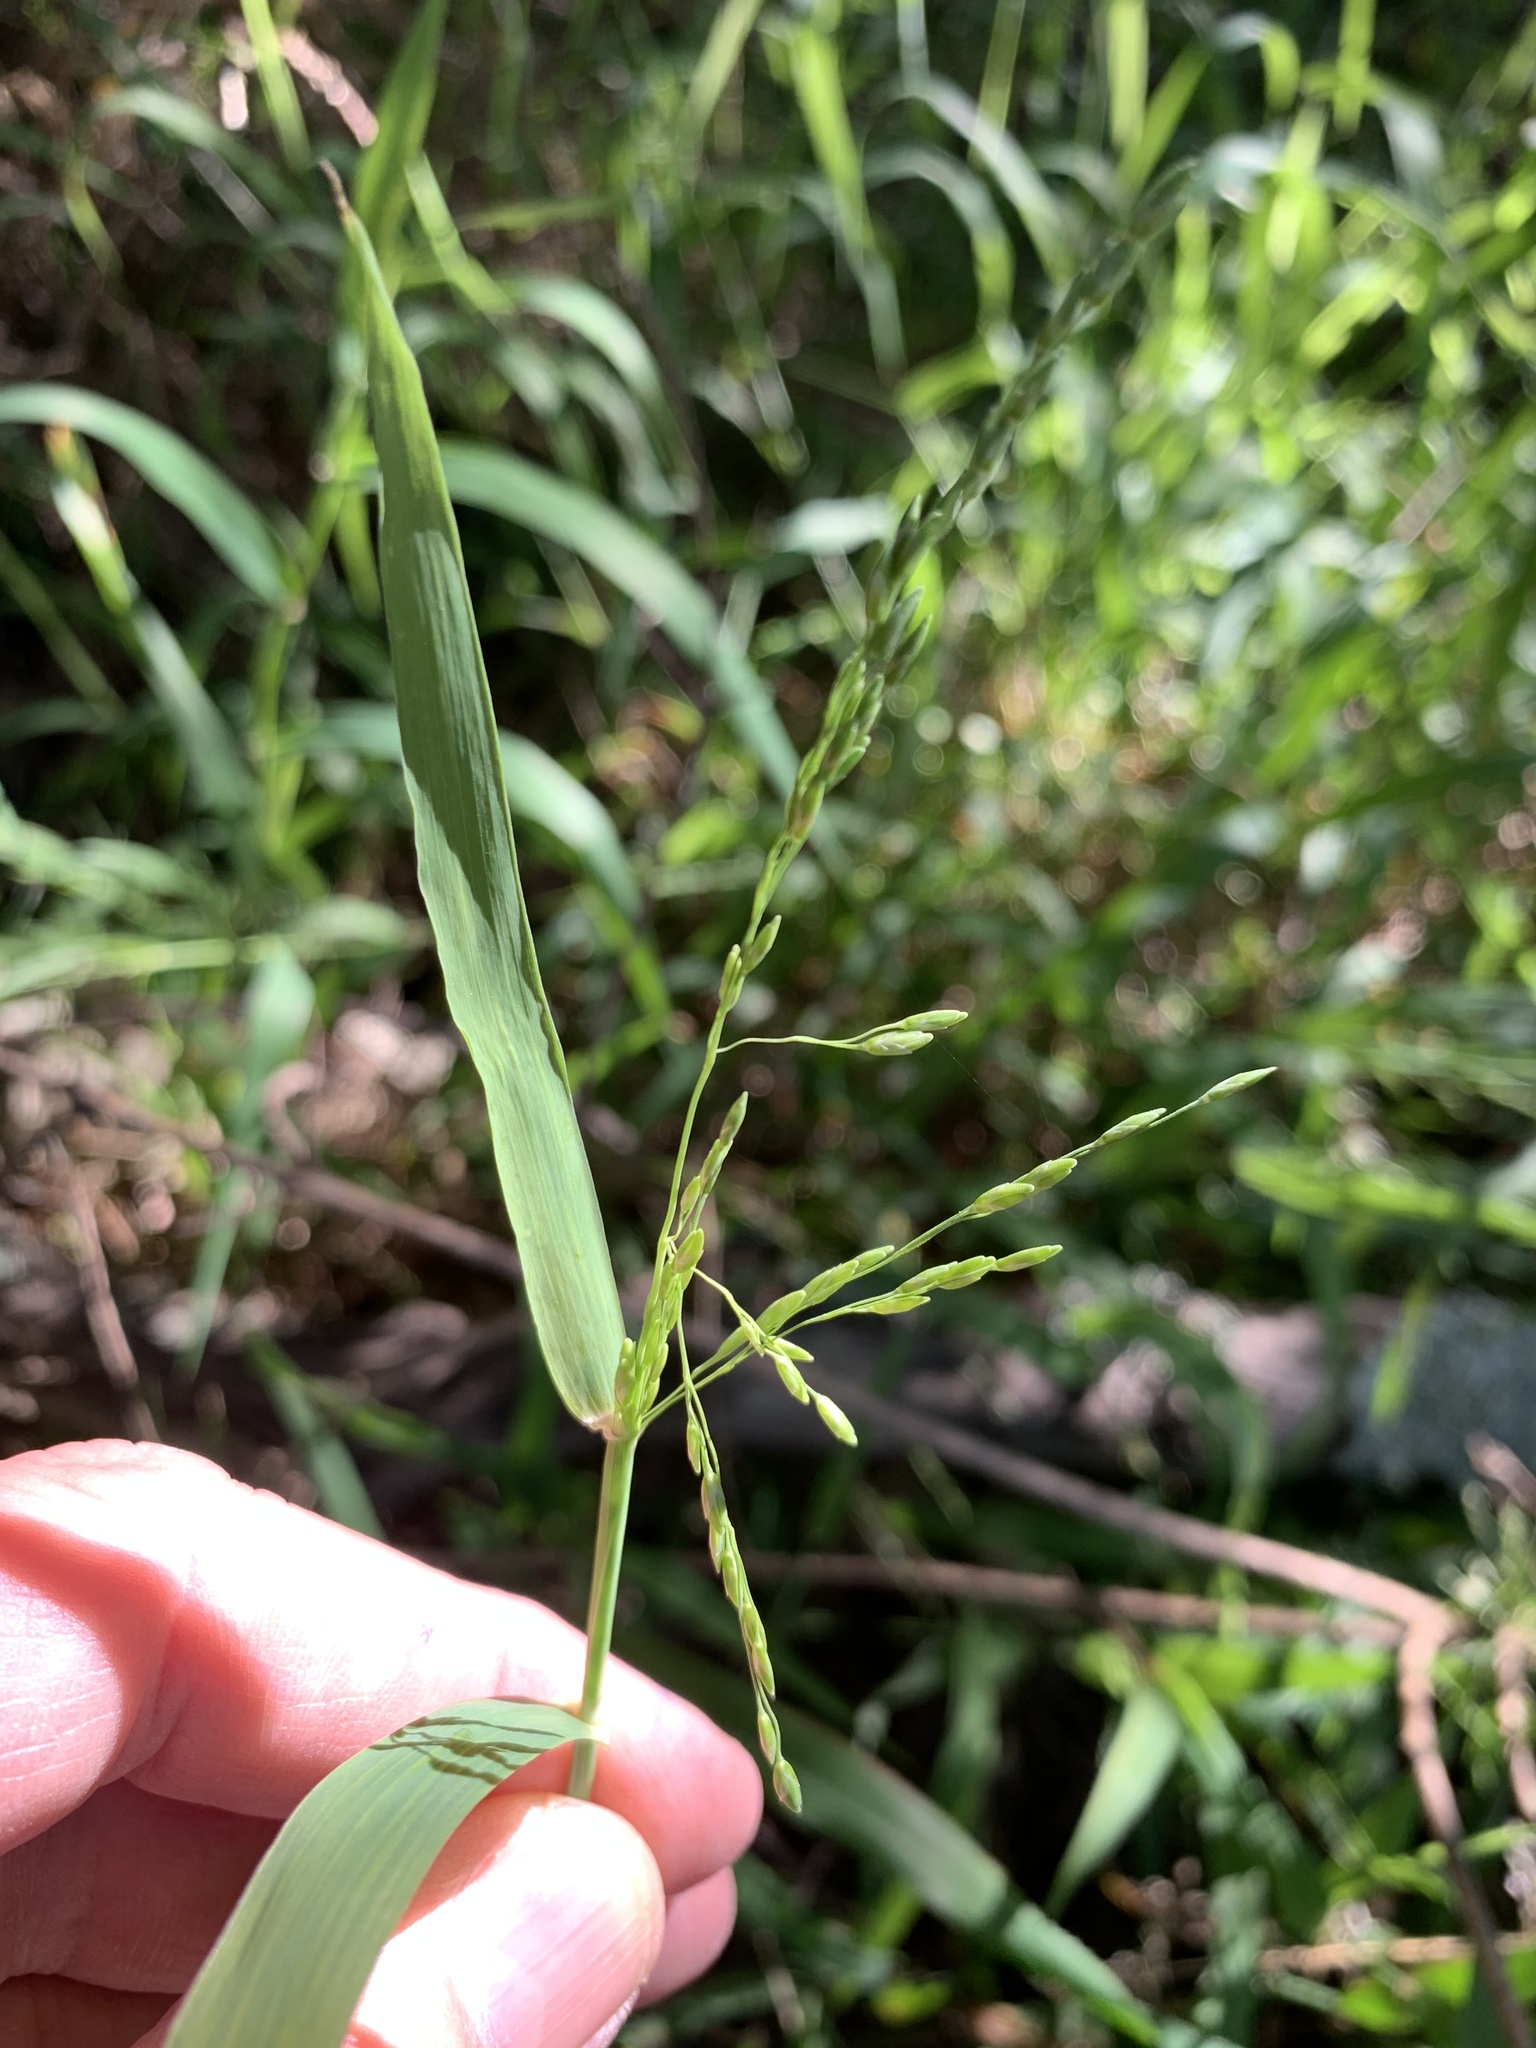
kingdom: Plantae
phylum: Tracheophyta
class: Liliopsida
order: Poales
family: Poaceae
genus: Ehrharta
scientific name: Ehrharta erecta
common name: Panic veldtgrass
